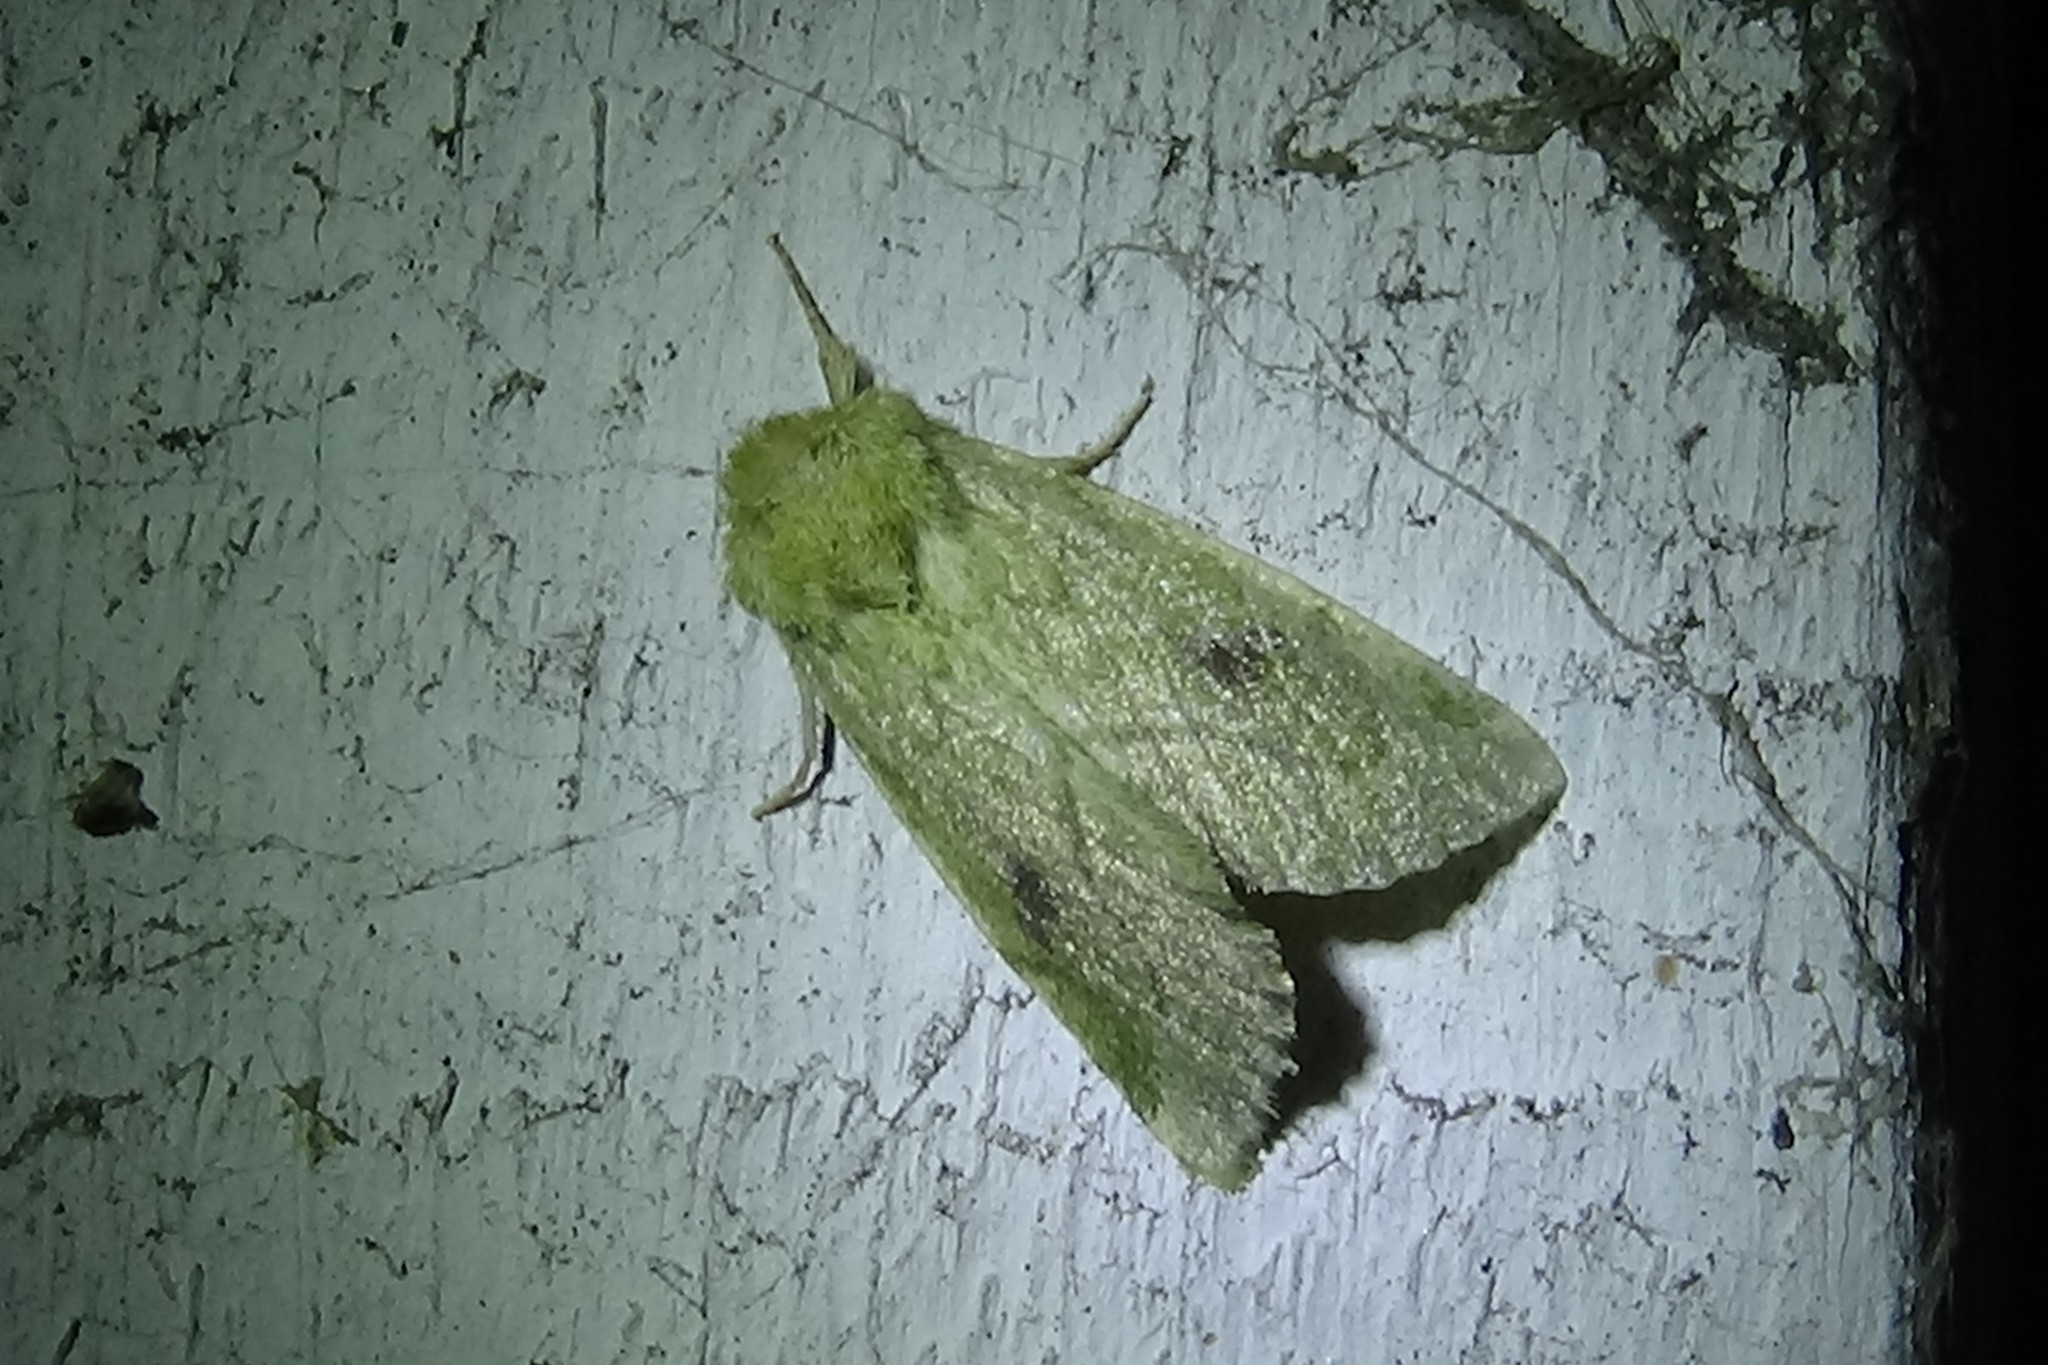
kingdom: Animalia
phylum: Arthropoda
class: Insecta
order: Lepidoptera
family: Noctuidae
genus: Zotheca
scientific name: Zotheca tranquilla
